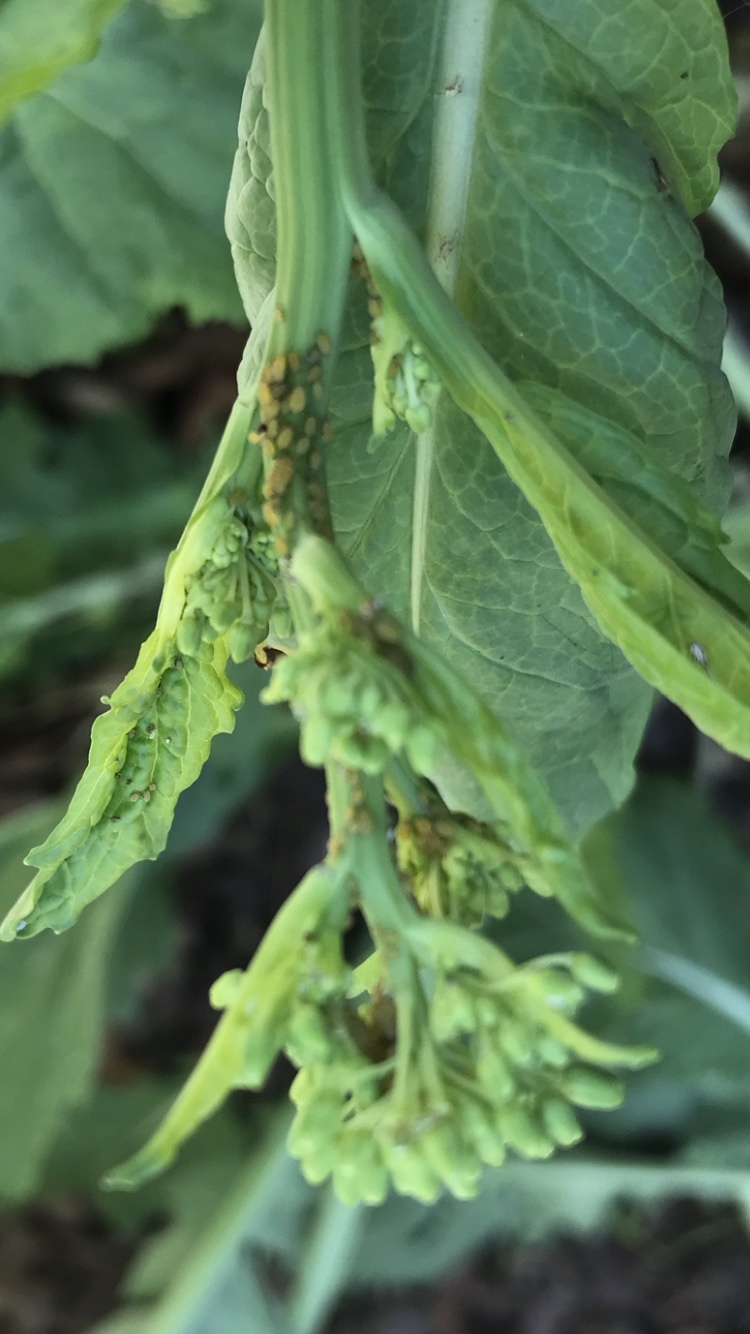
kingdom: Animalia
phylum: Arthropoda
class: Insecta
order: Hemiptera
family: Aphididae
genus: Aphis
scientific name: Aphis nerii
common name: Oleander aphid
